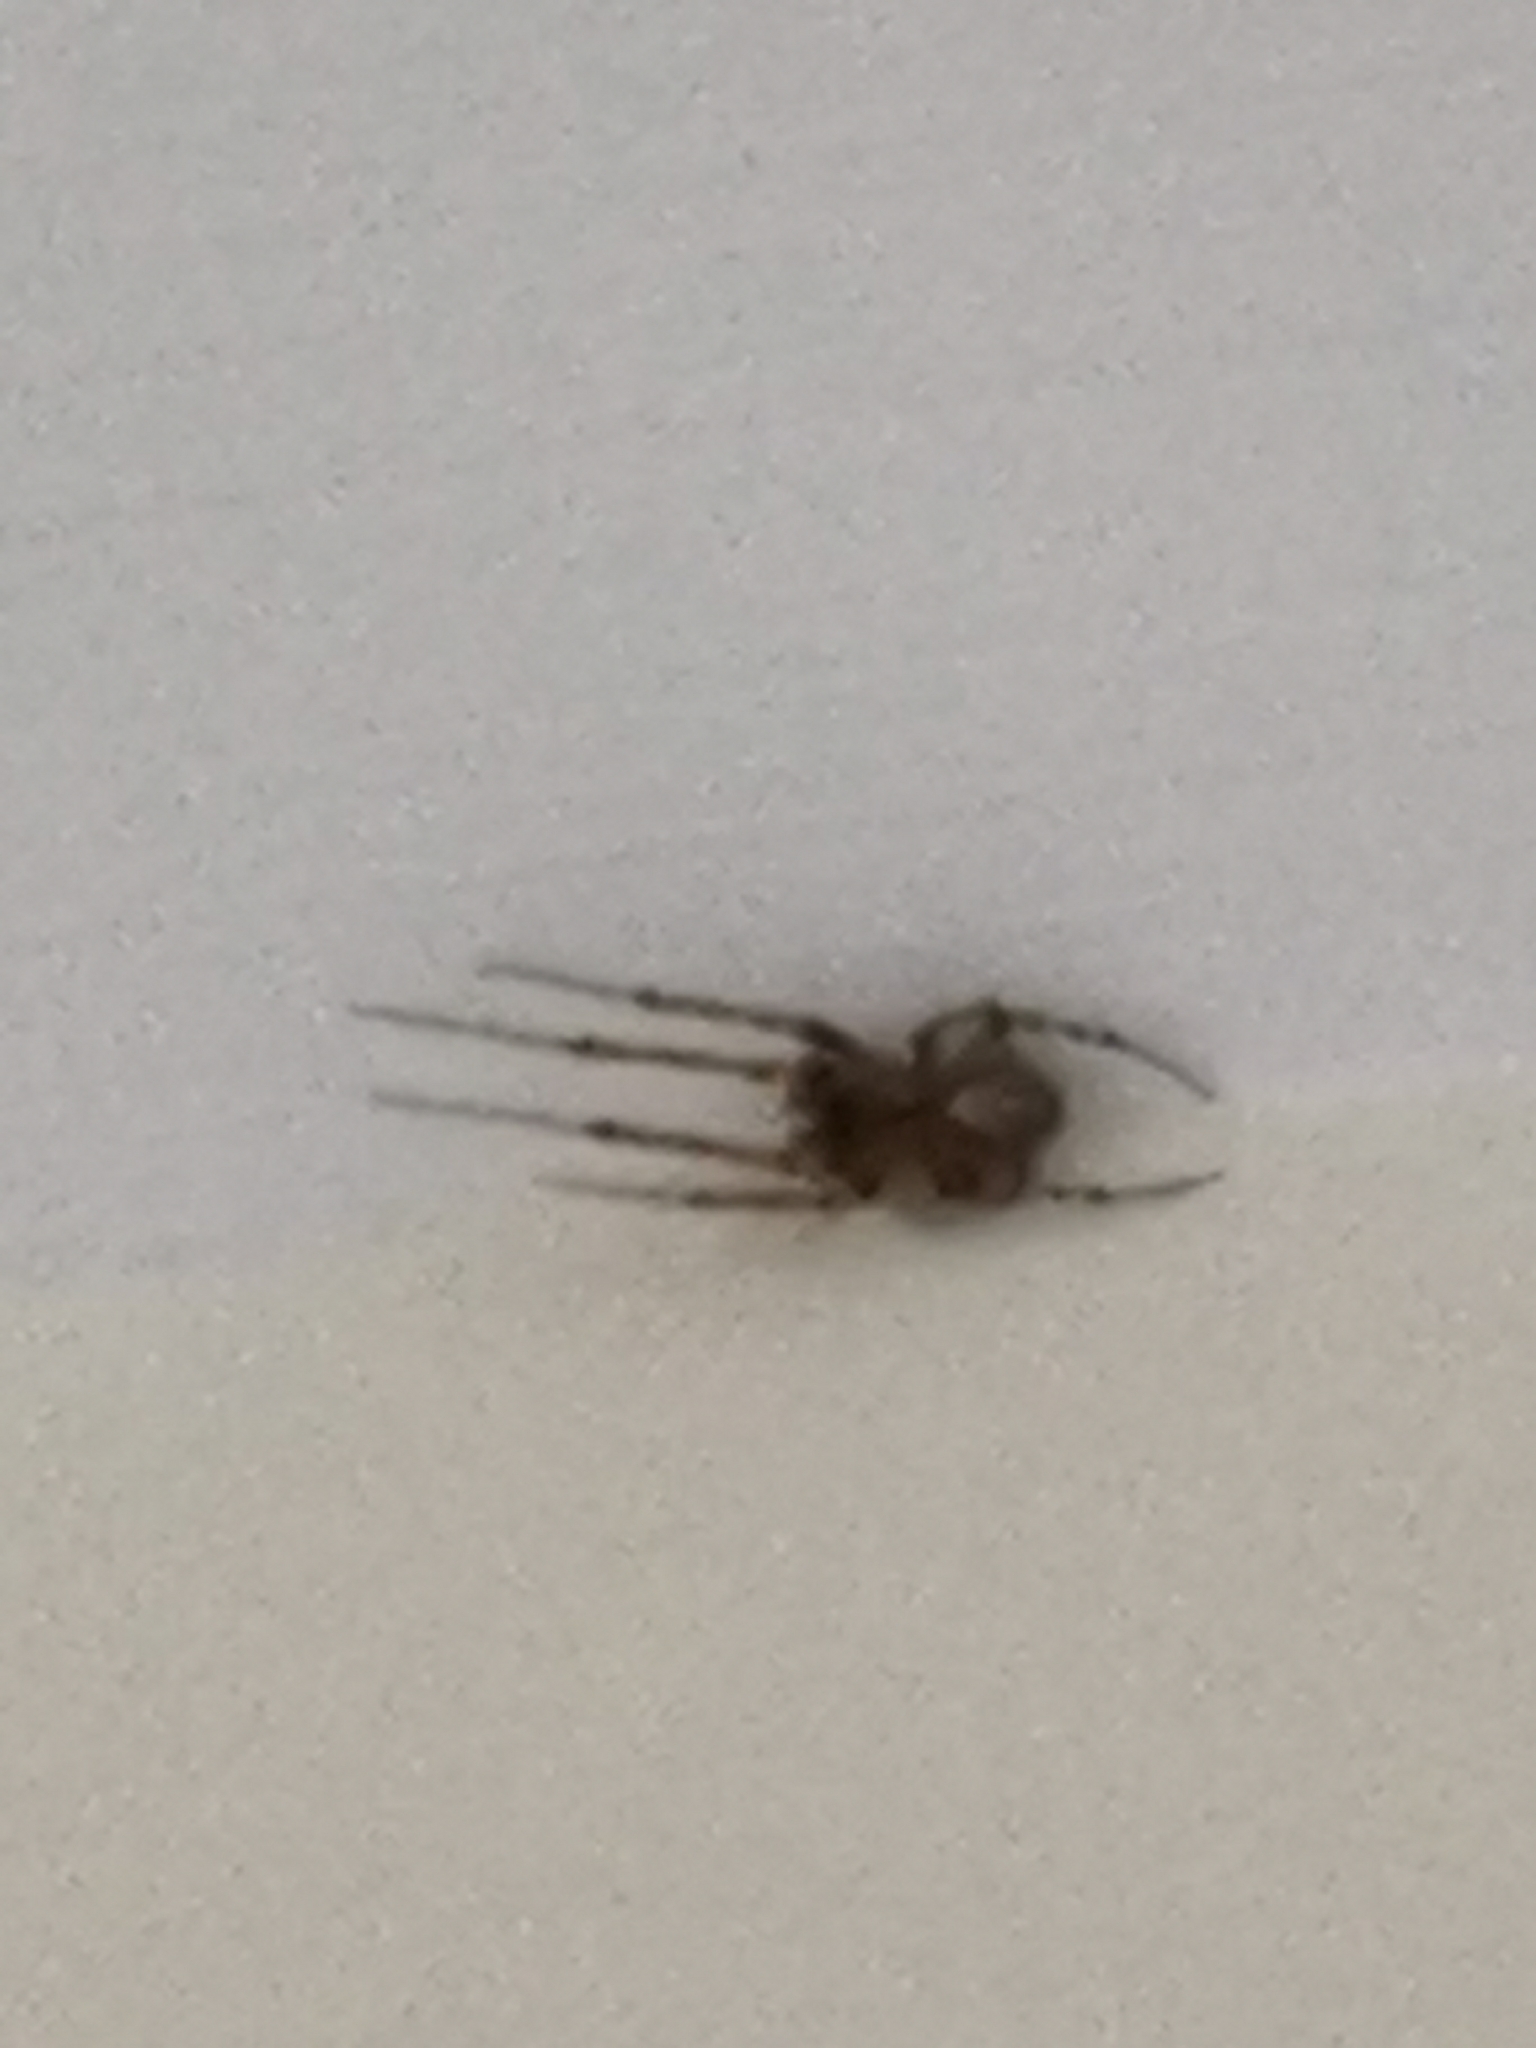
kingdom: Animalia
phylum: Arthropoda
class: Arachnida
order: Araneae
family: Araneidae
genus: Zygiella
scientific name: Zygiella x-notata
